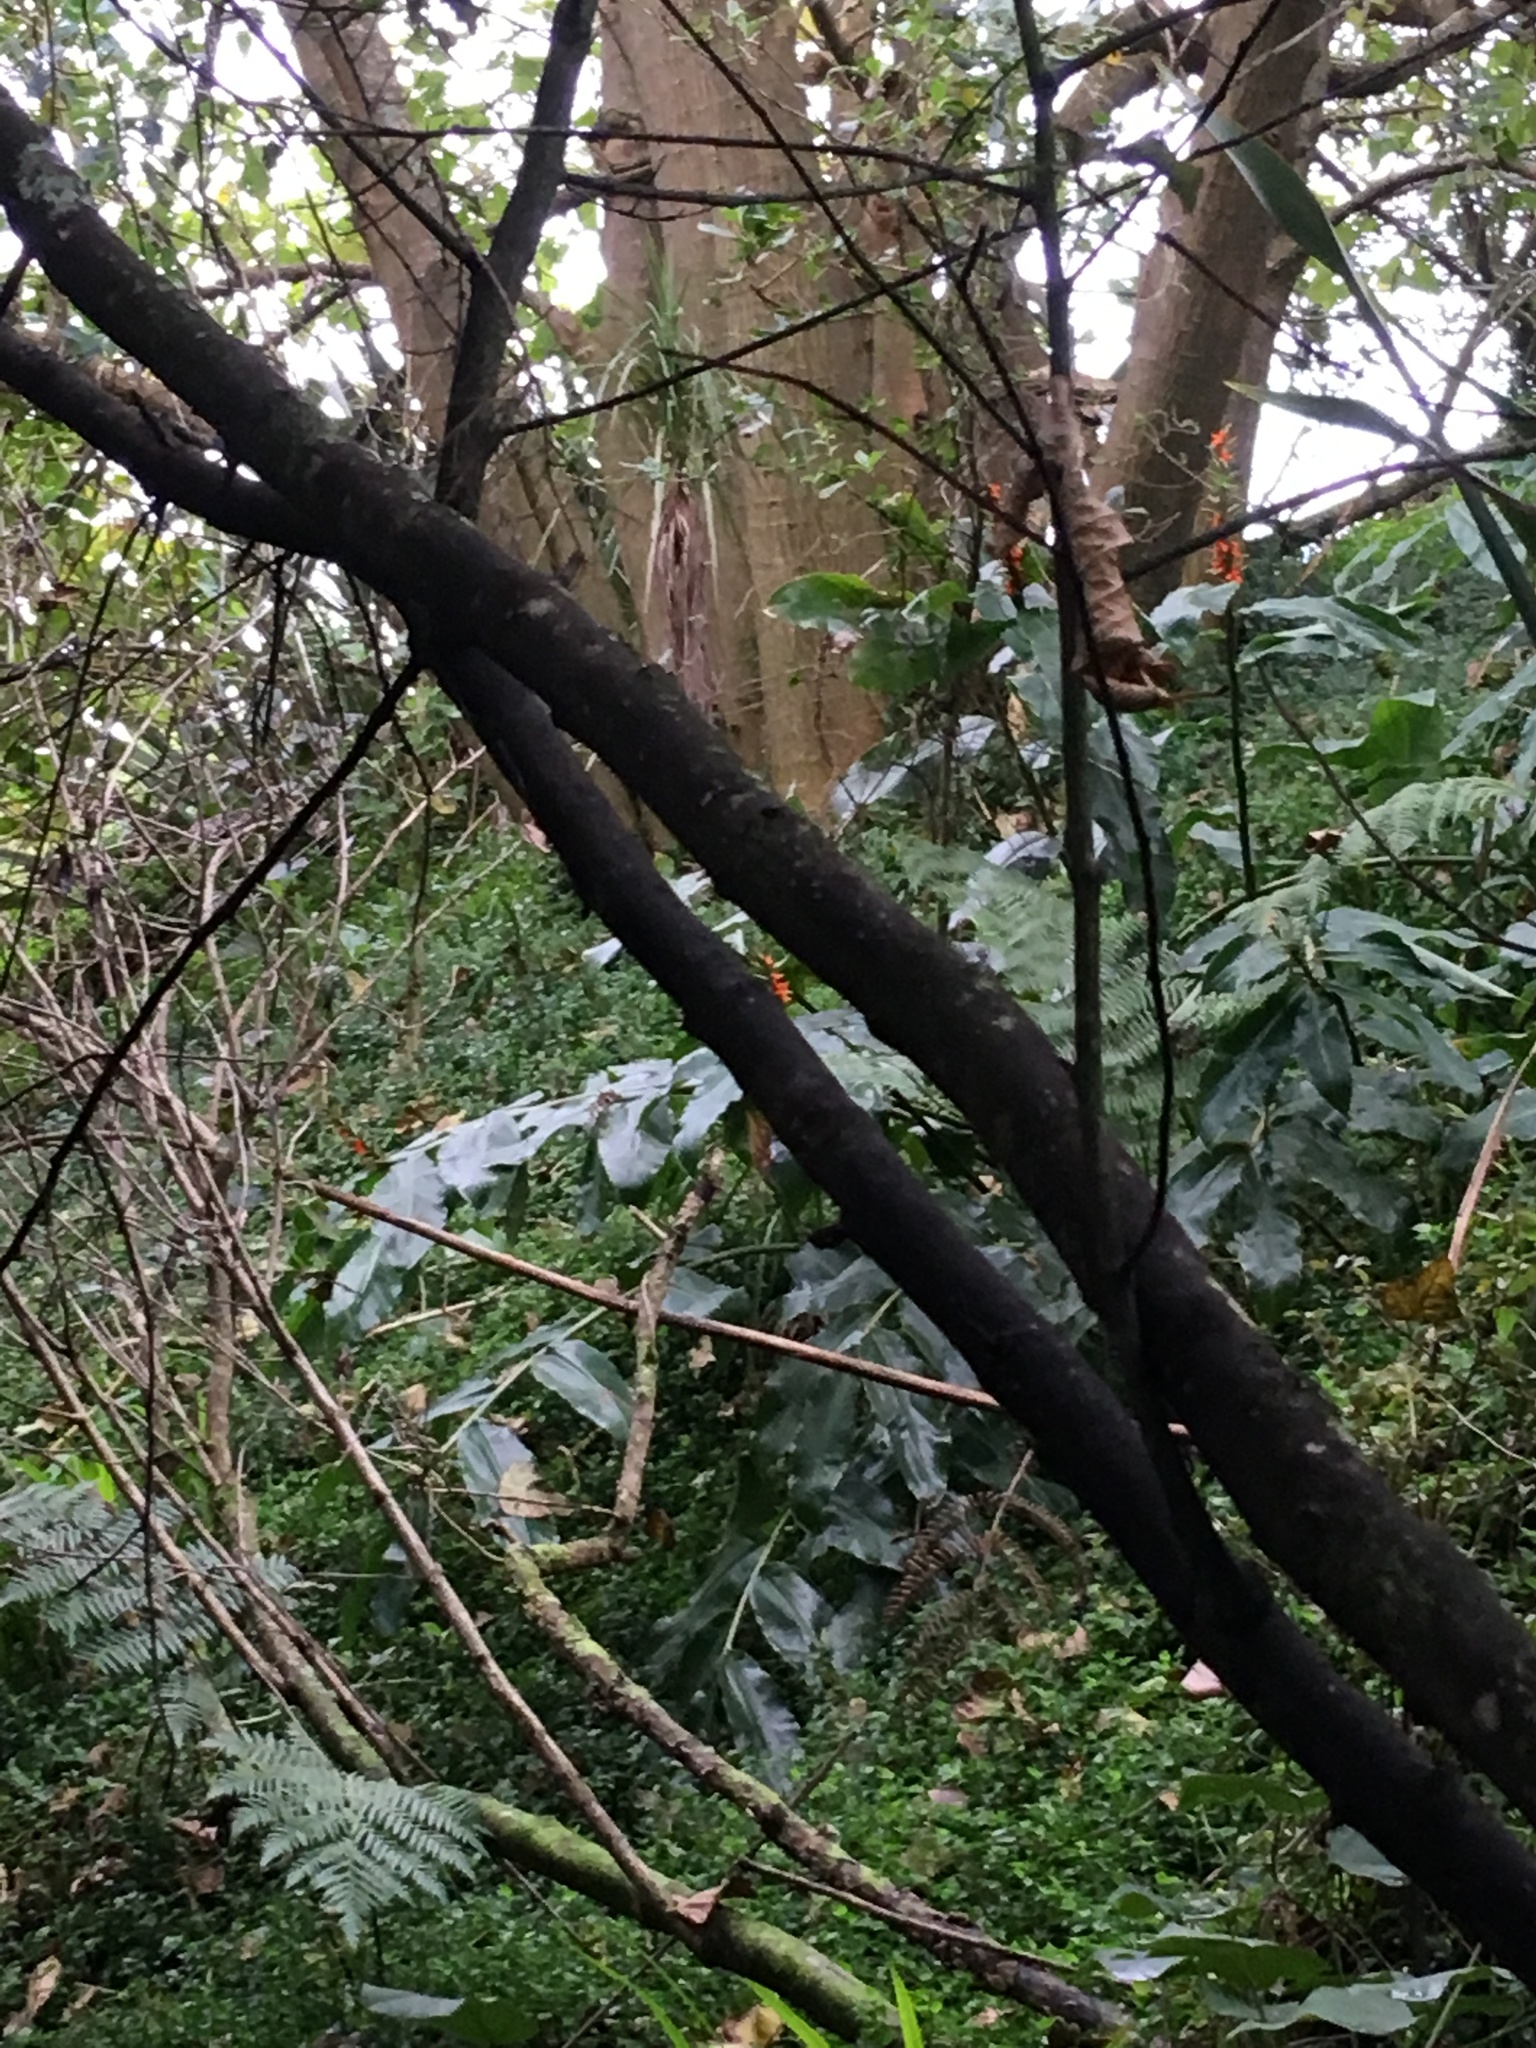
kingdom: Plantae
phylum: Tracheophyta
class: Magnoliopsida
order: Fabales
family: Fabaceae
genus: Erythrina
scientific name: Erythrina sykesii
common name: Coraltree
